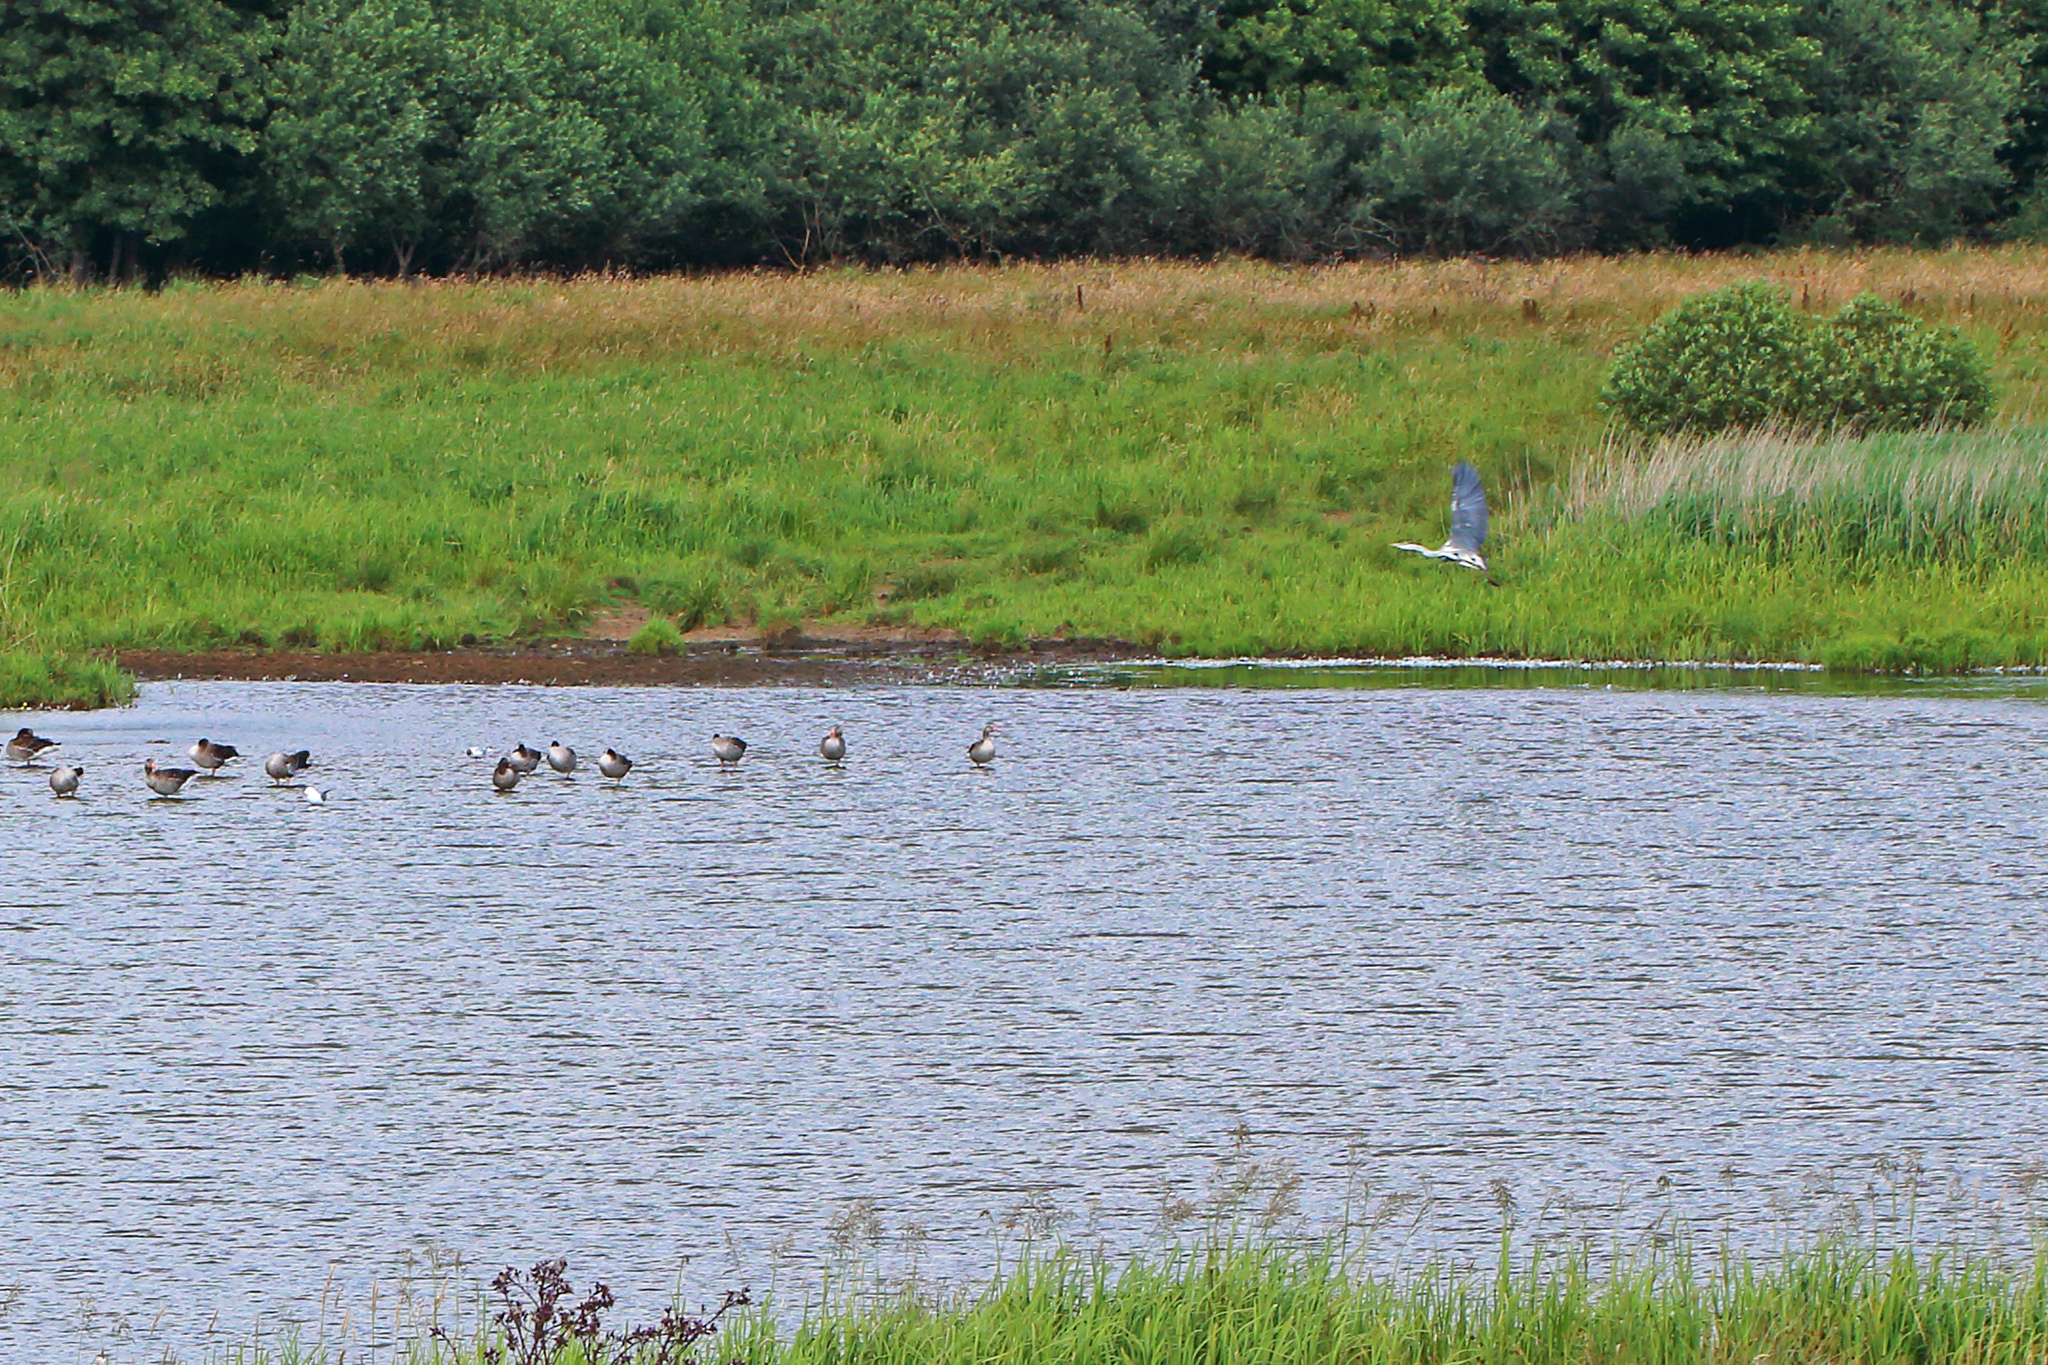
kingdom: Animalia
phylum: Chordata
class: Aves
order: Pelecaniformes
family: Ardeidae
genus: Ardea
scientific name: Ardea cinerea
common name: Grey heron
